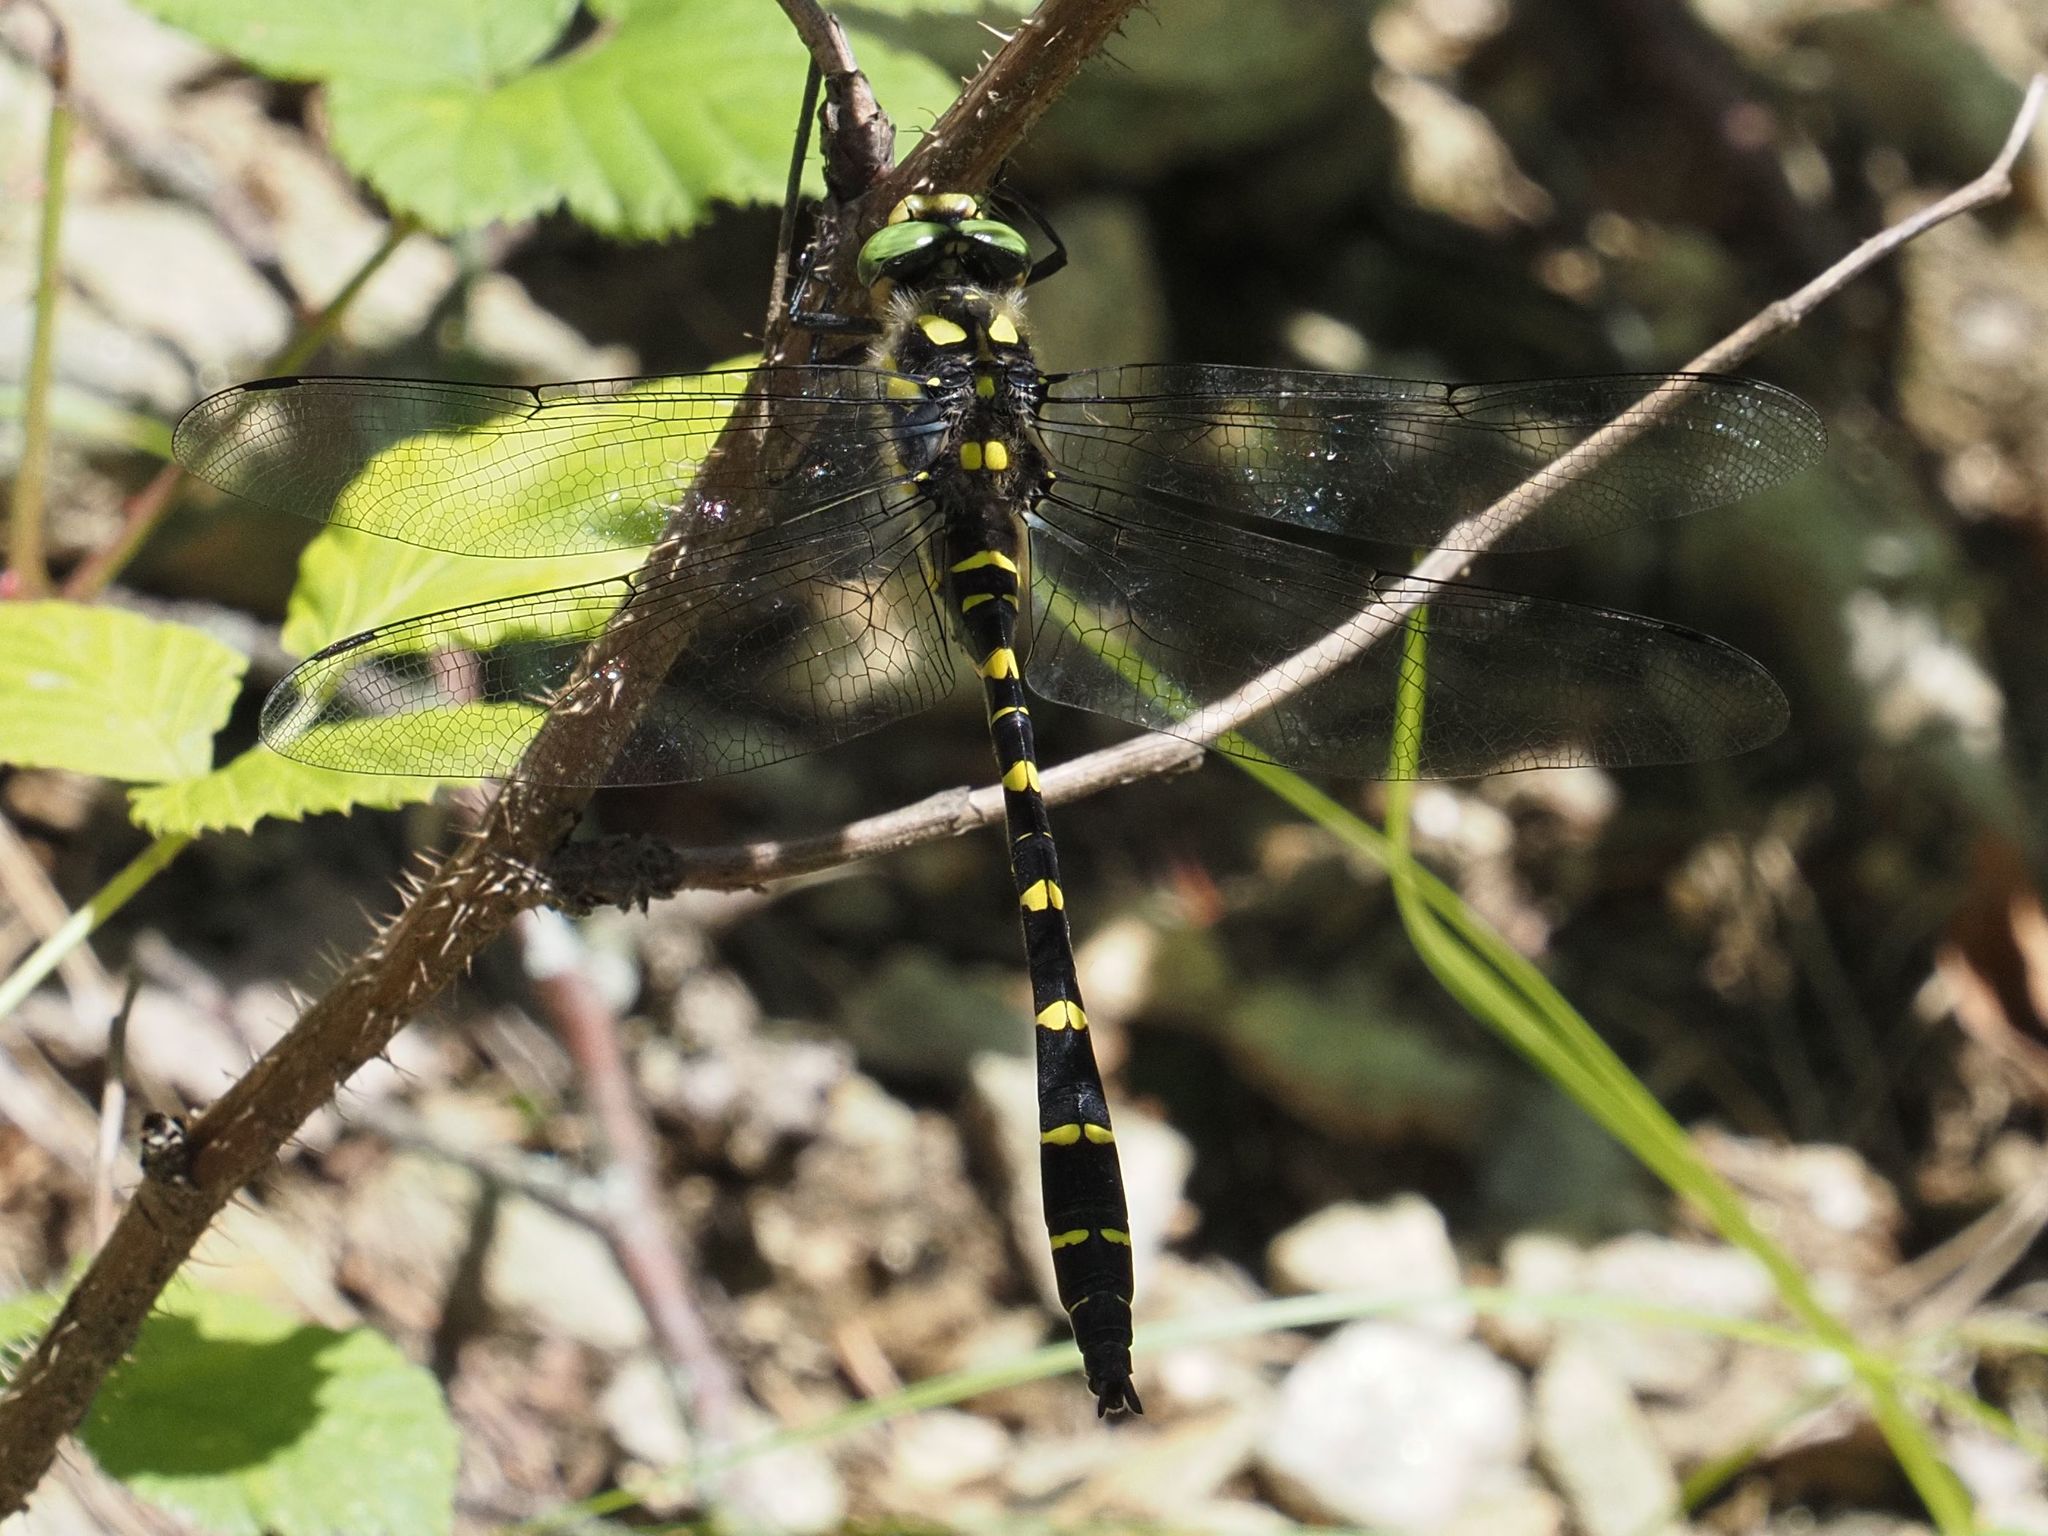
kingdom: Animalia
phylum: Arthropoda
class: Insecta
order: Odonata
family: Cordulegastridae
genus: Cordulegaster
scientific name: Cordulegaster bidentata
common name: Sombre goldenring
